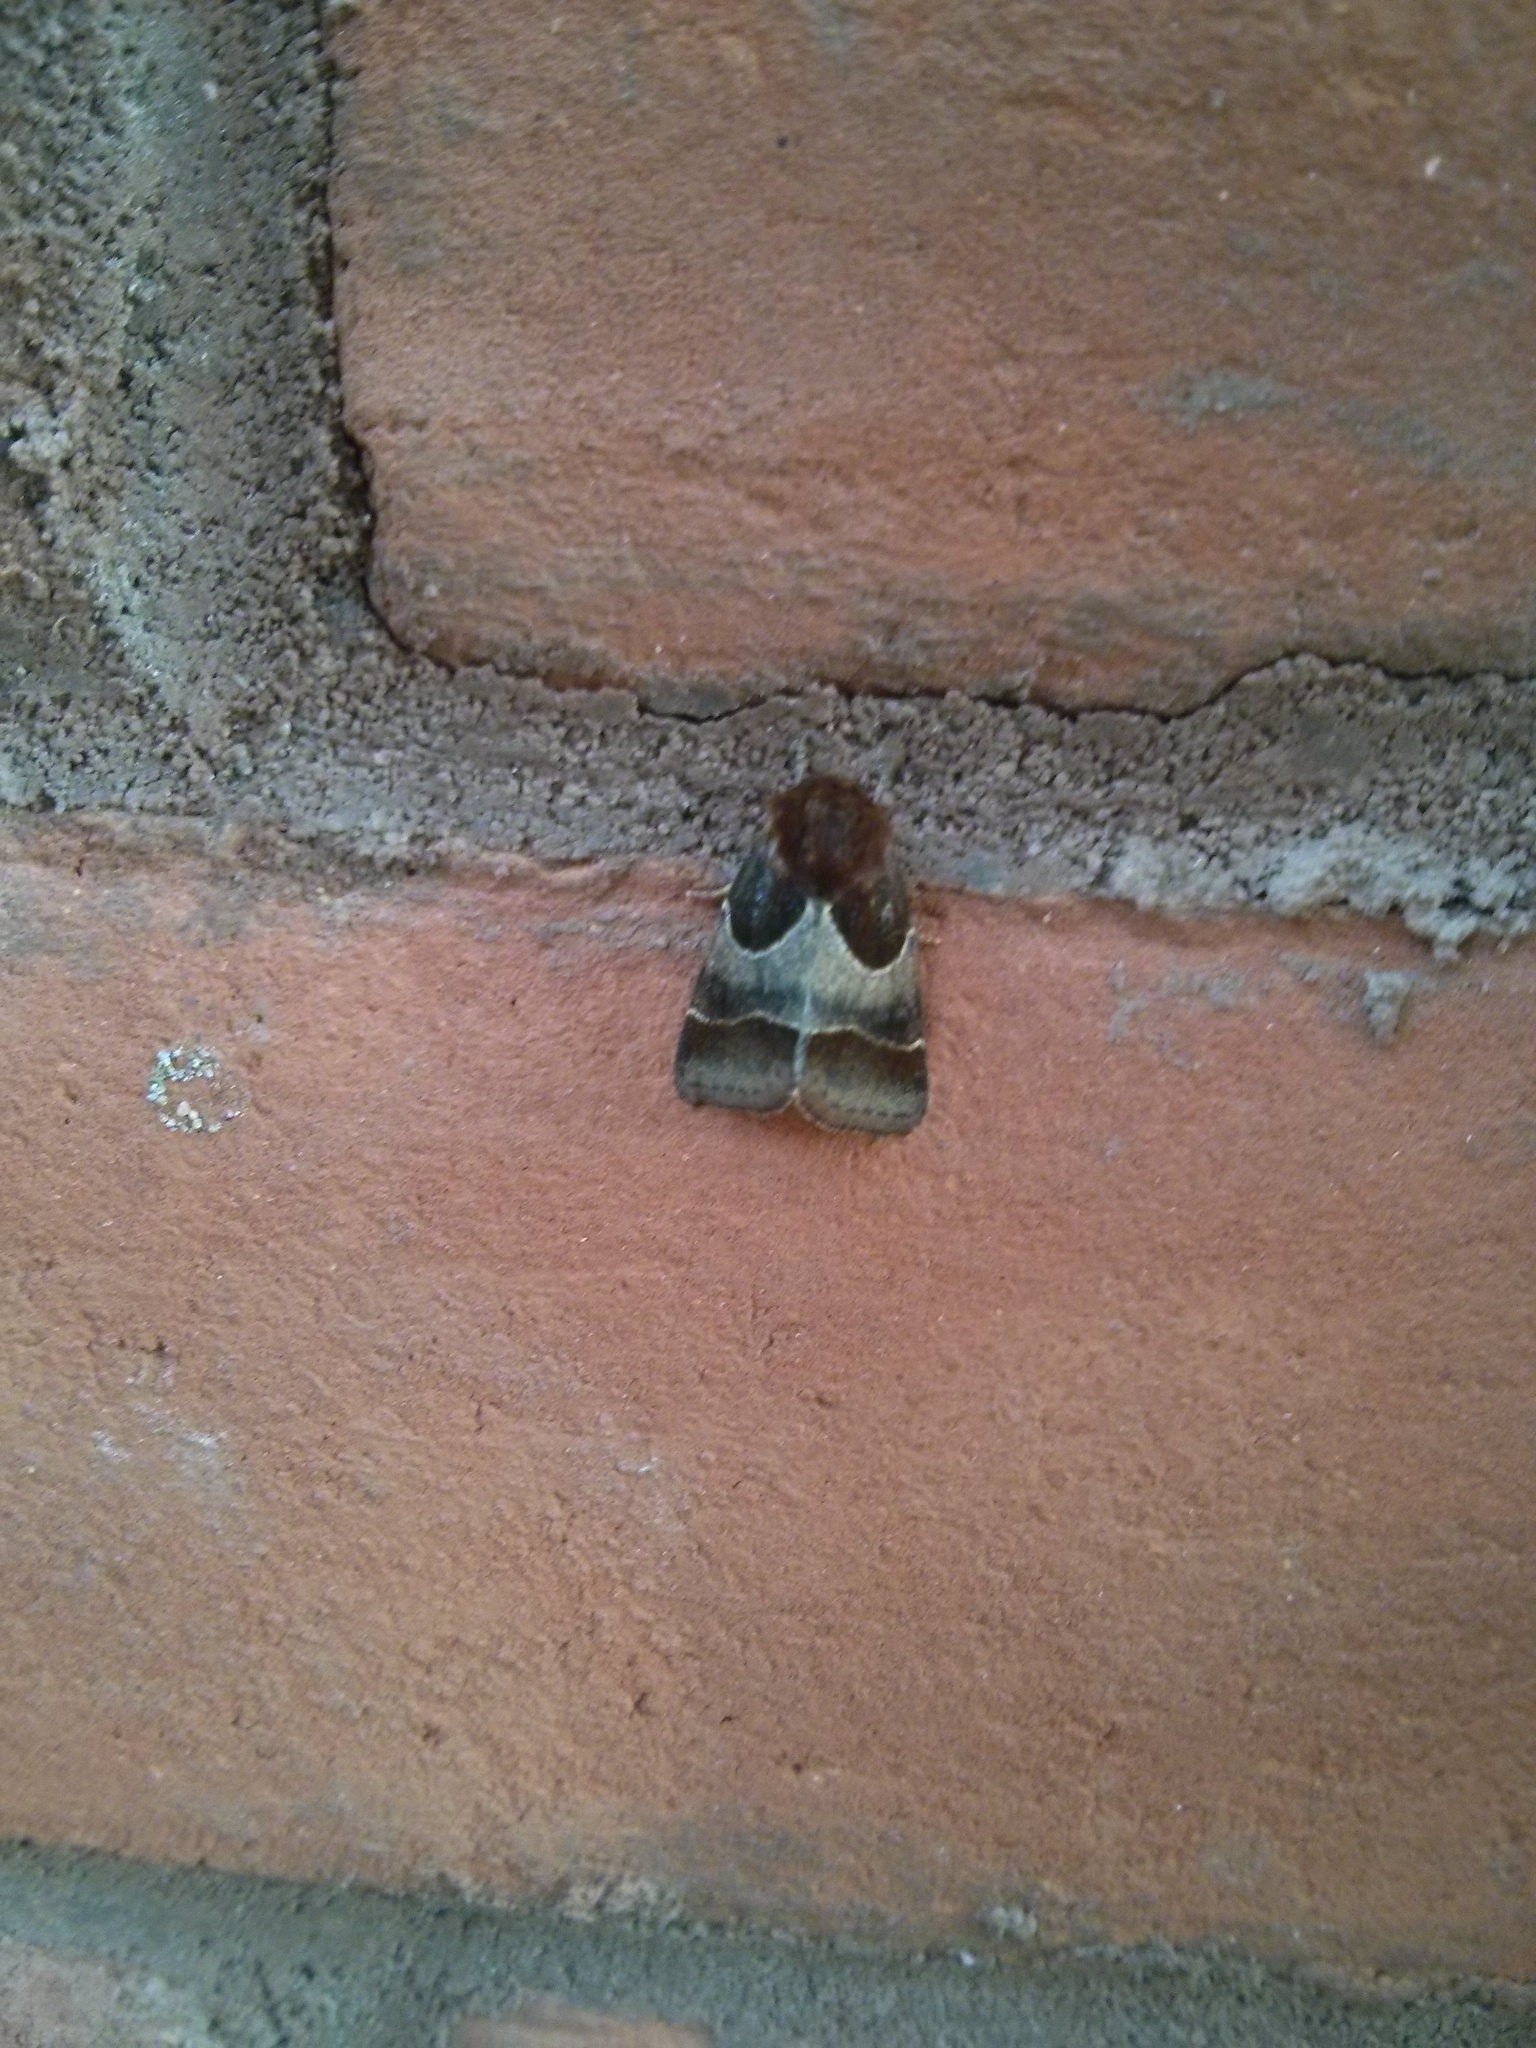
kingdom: Animalia
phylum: Arthropoda
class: Insecta
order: Lepidoptera
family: Noctuidae
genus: Schinia
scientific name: Schinia arcigera
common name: Arcigera flower moth
